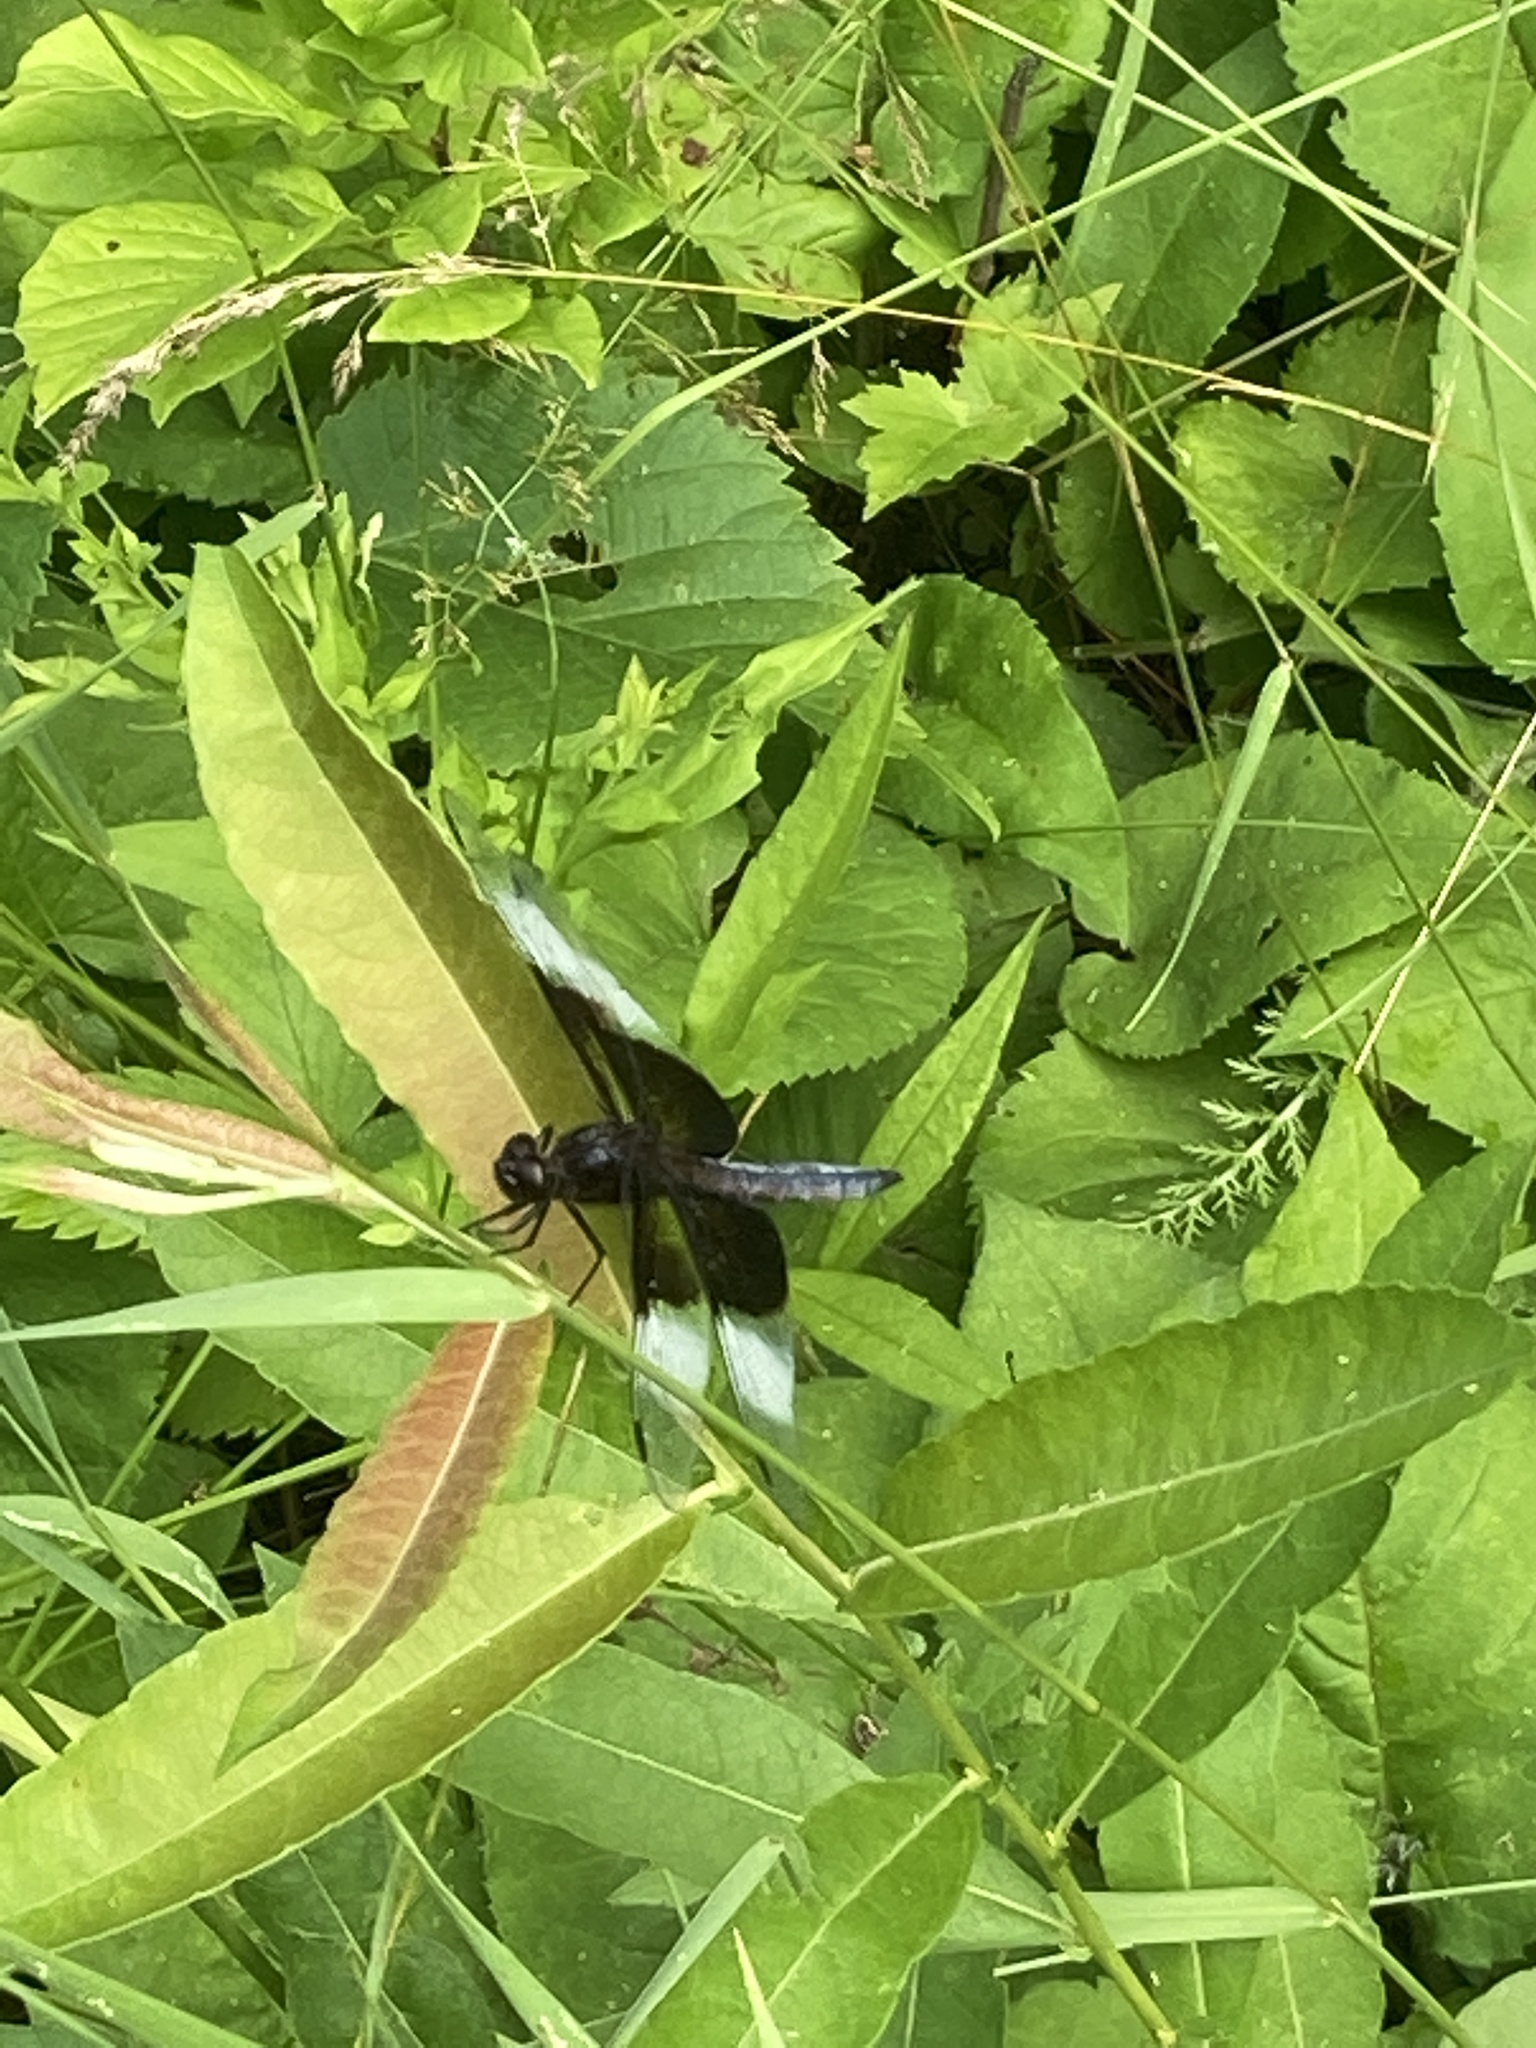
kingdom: Animalia
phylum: Arthropoda
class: Insecta
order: Odonata
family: Libellulidae
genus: Libellula
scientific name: Libellula luctuosa
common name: Widow skimmer
